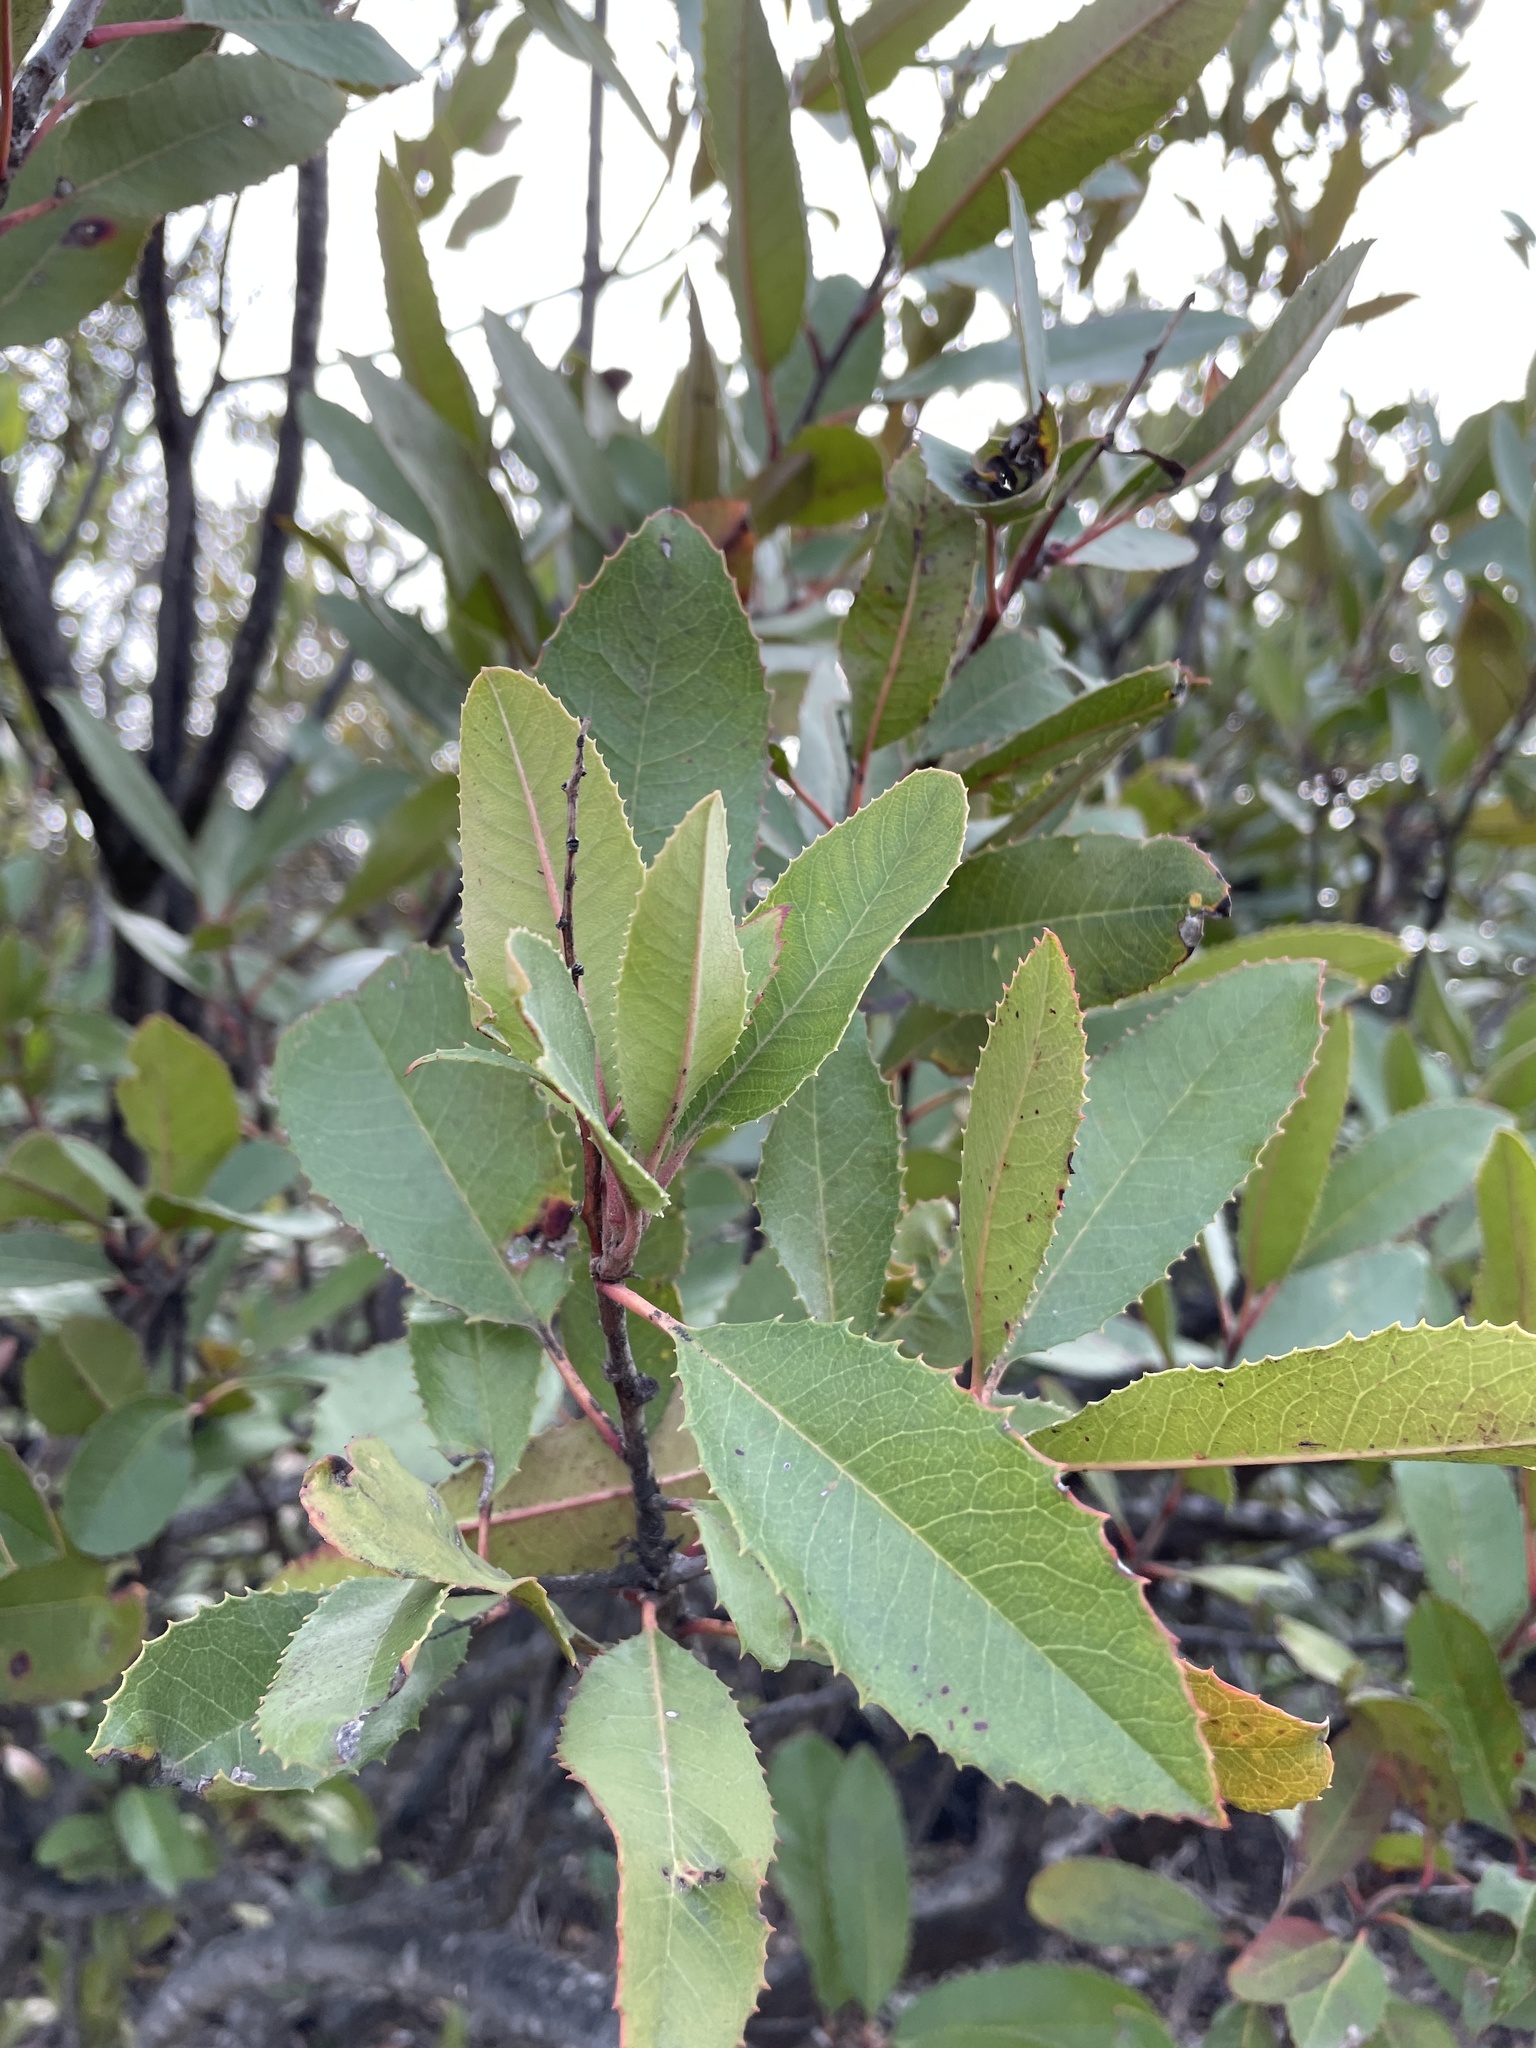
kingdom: Plantae
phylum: Tracheophyta
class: Magnoliopsida
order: Rosales
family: Rosaceae
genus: Heteromeles
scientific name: Heteromeles arbutifolia
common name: California-holly
